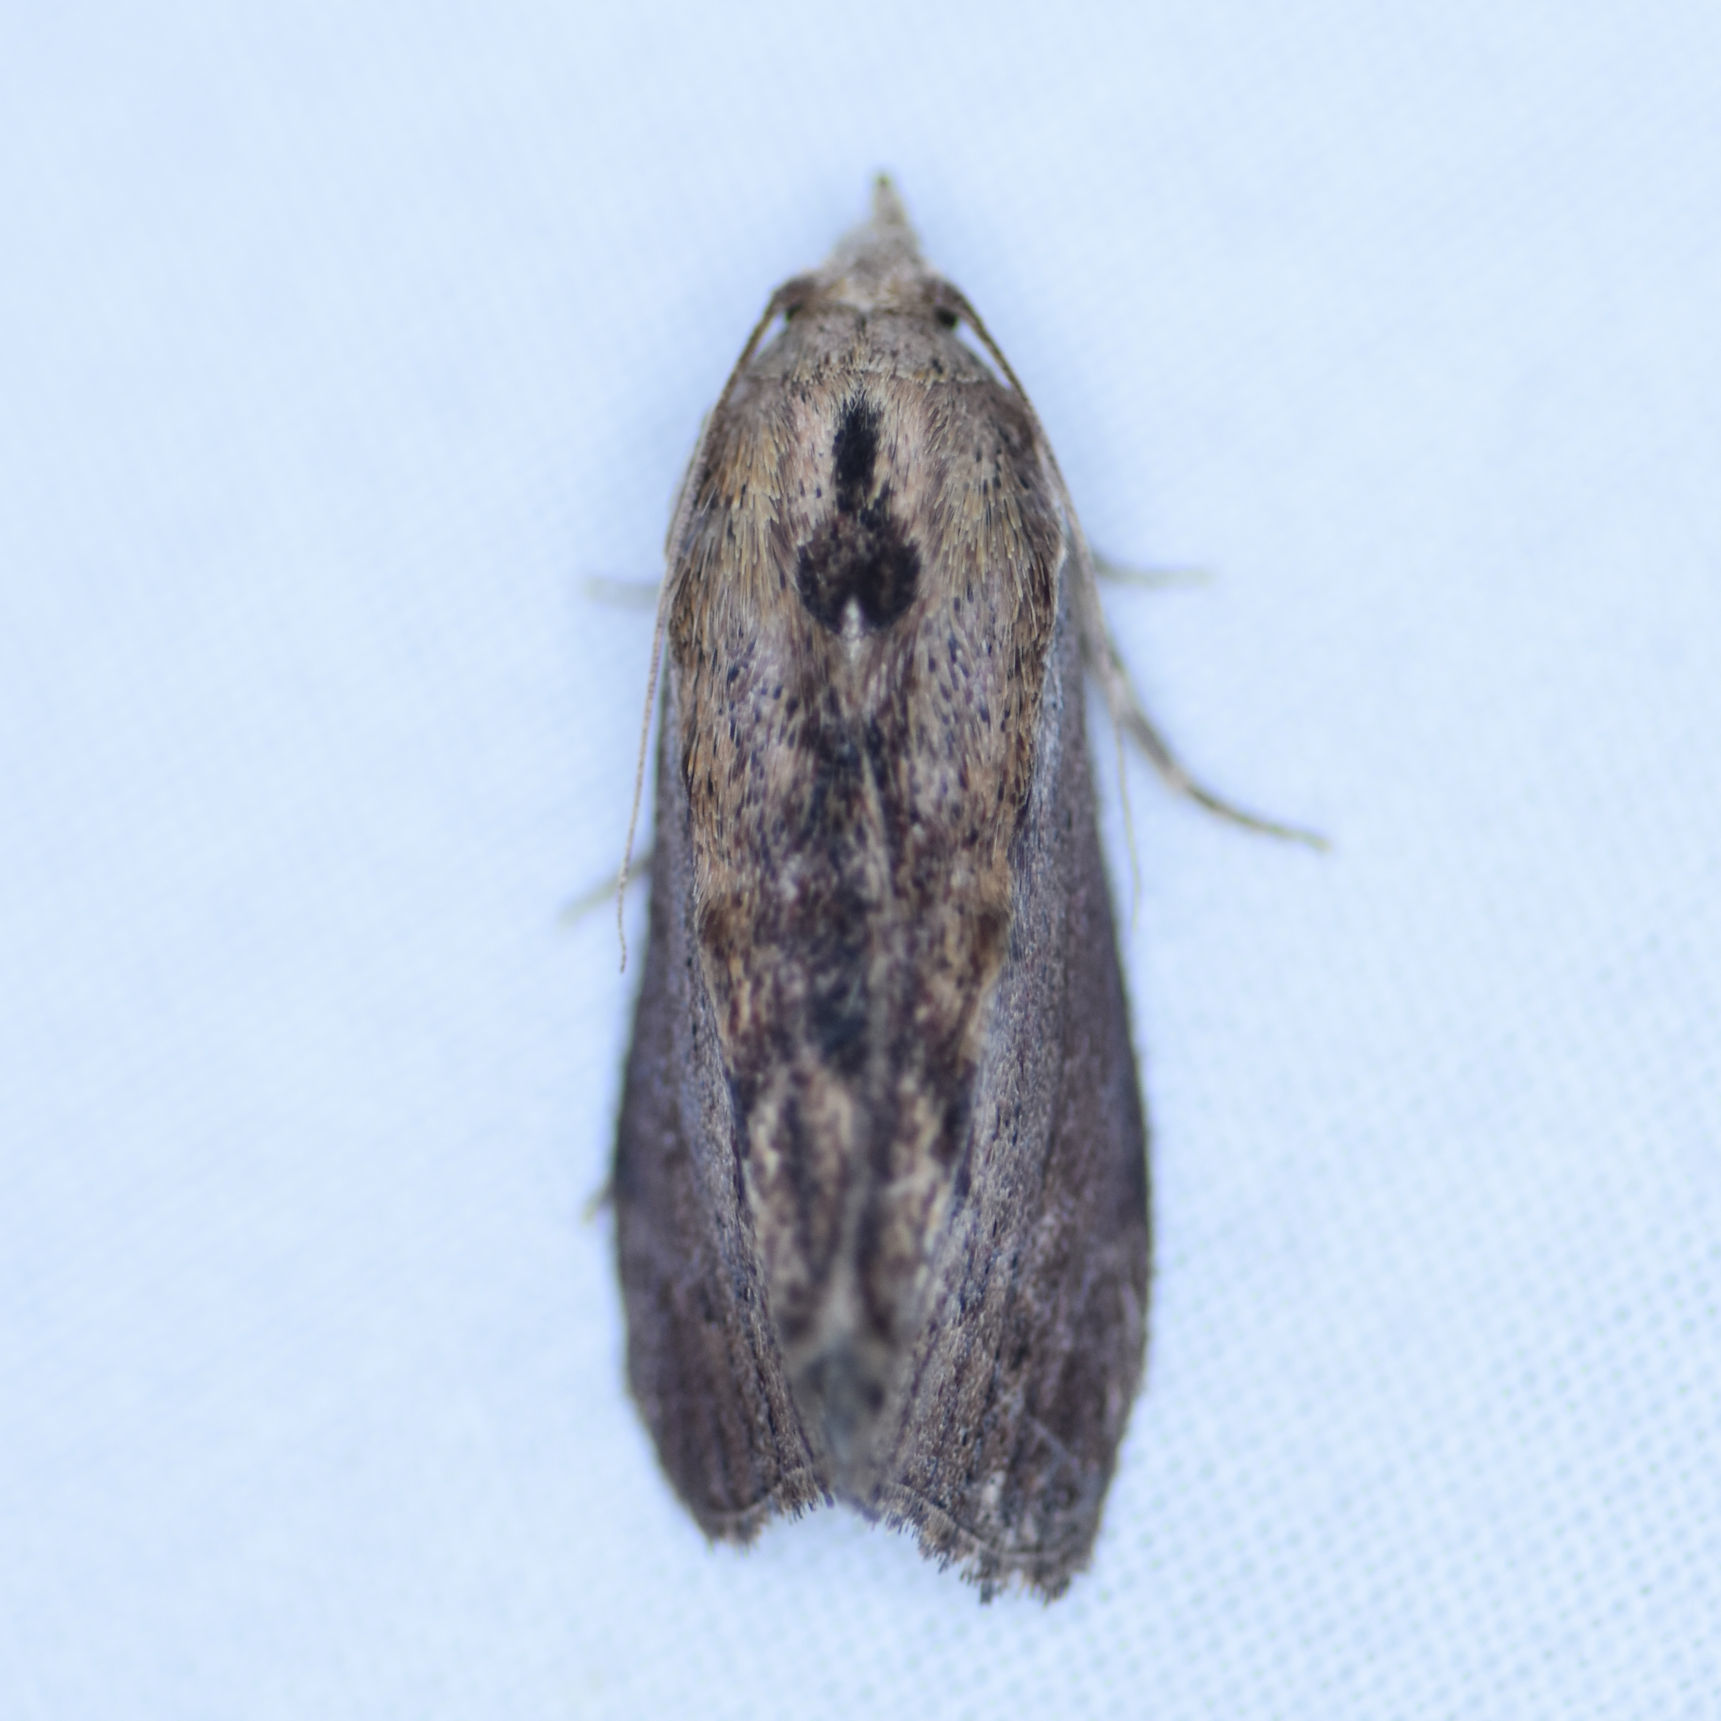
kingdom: Animalia
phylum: Arthropoda
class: Insecta
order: Lepidoptera
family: Pyralidae
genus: Galleria
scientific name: Galleria mellonella
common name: Greater wax moth
